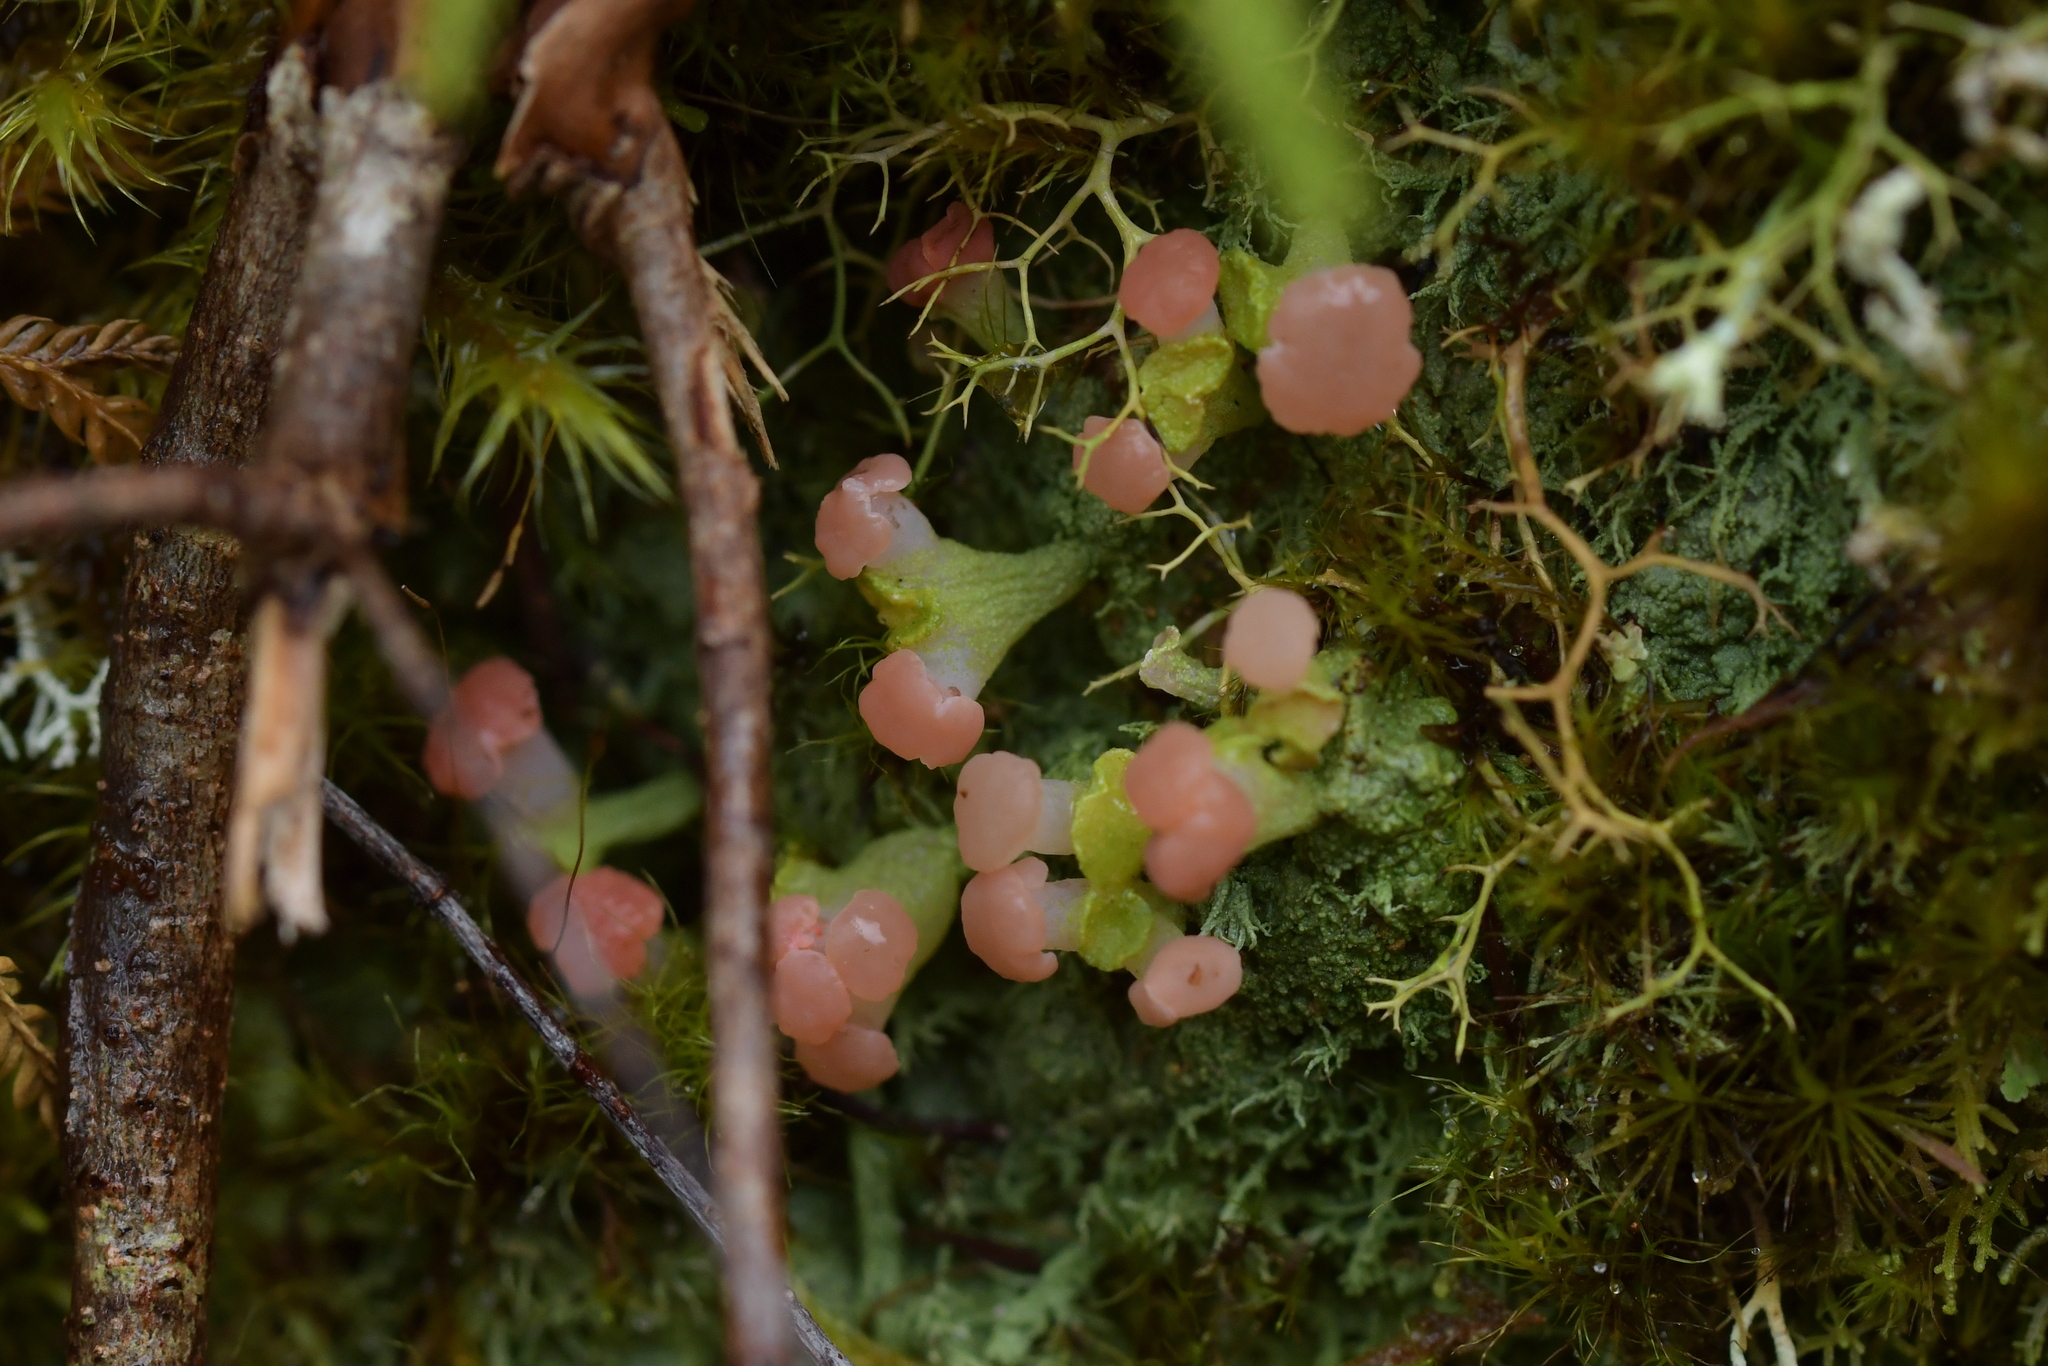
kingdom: Fungi
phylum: Ascomycota
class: Lecanoromycetes
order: Baeomycetales
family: Baeomycetaceae
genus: Baeomyces
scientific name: Baeomyces heteromorphus
